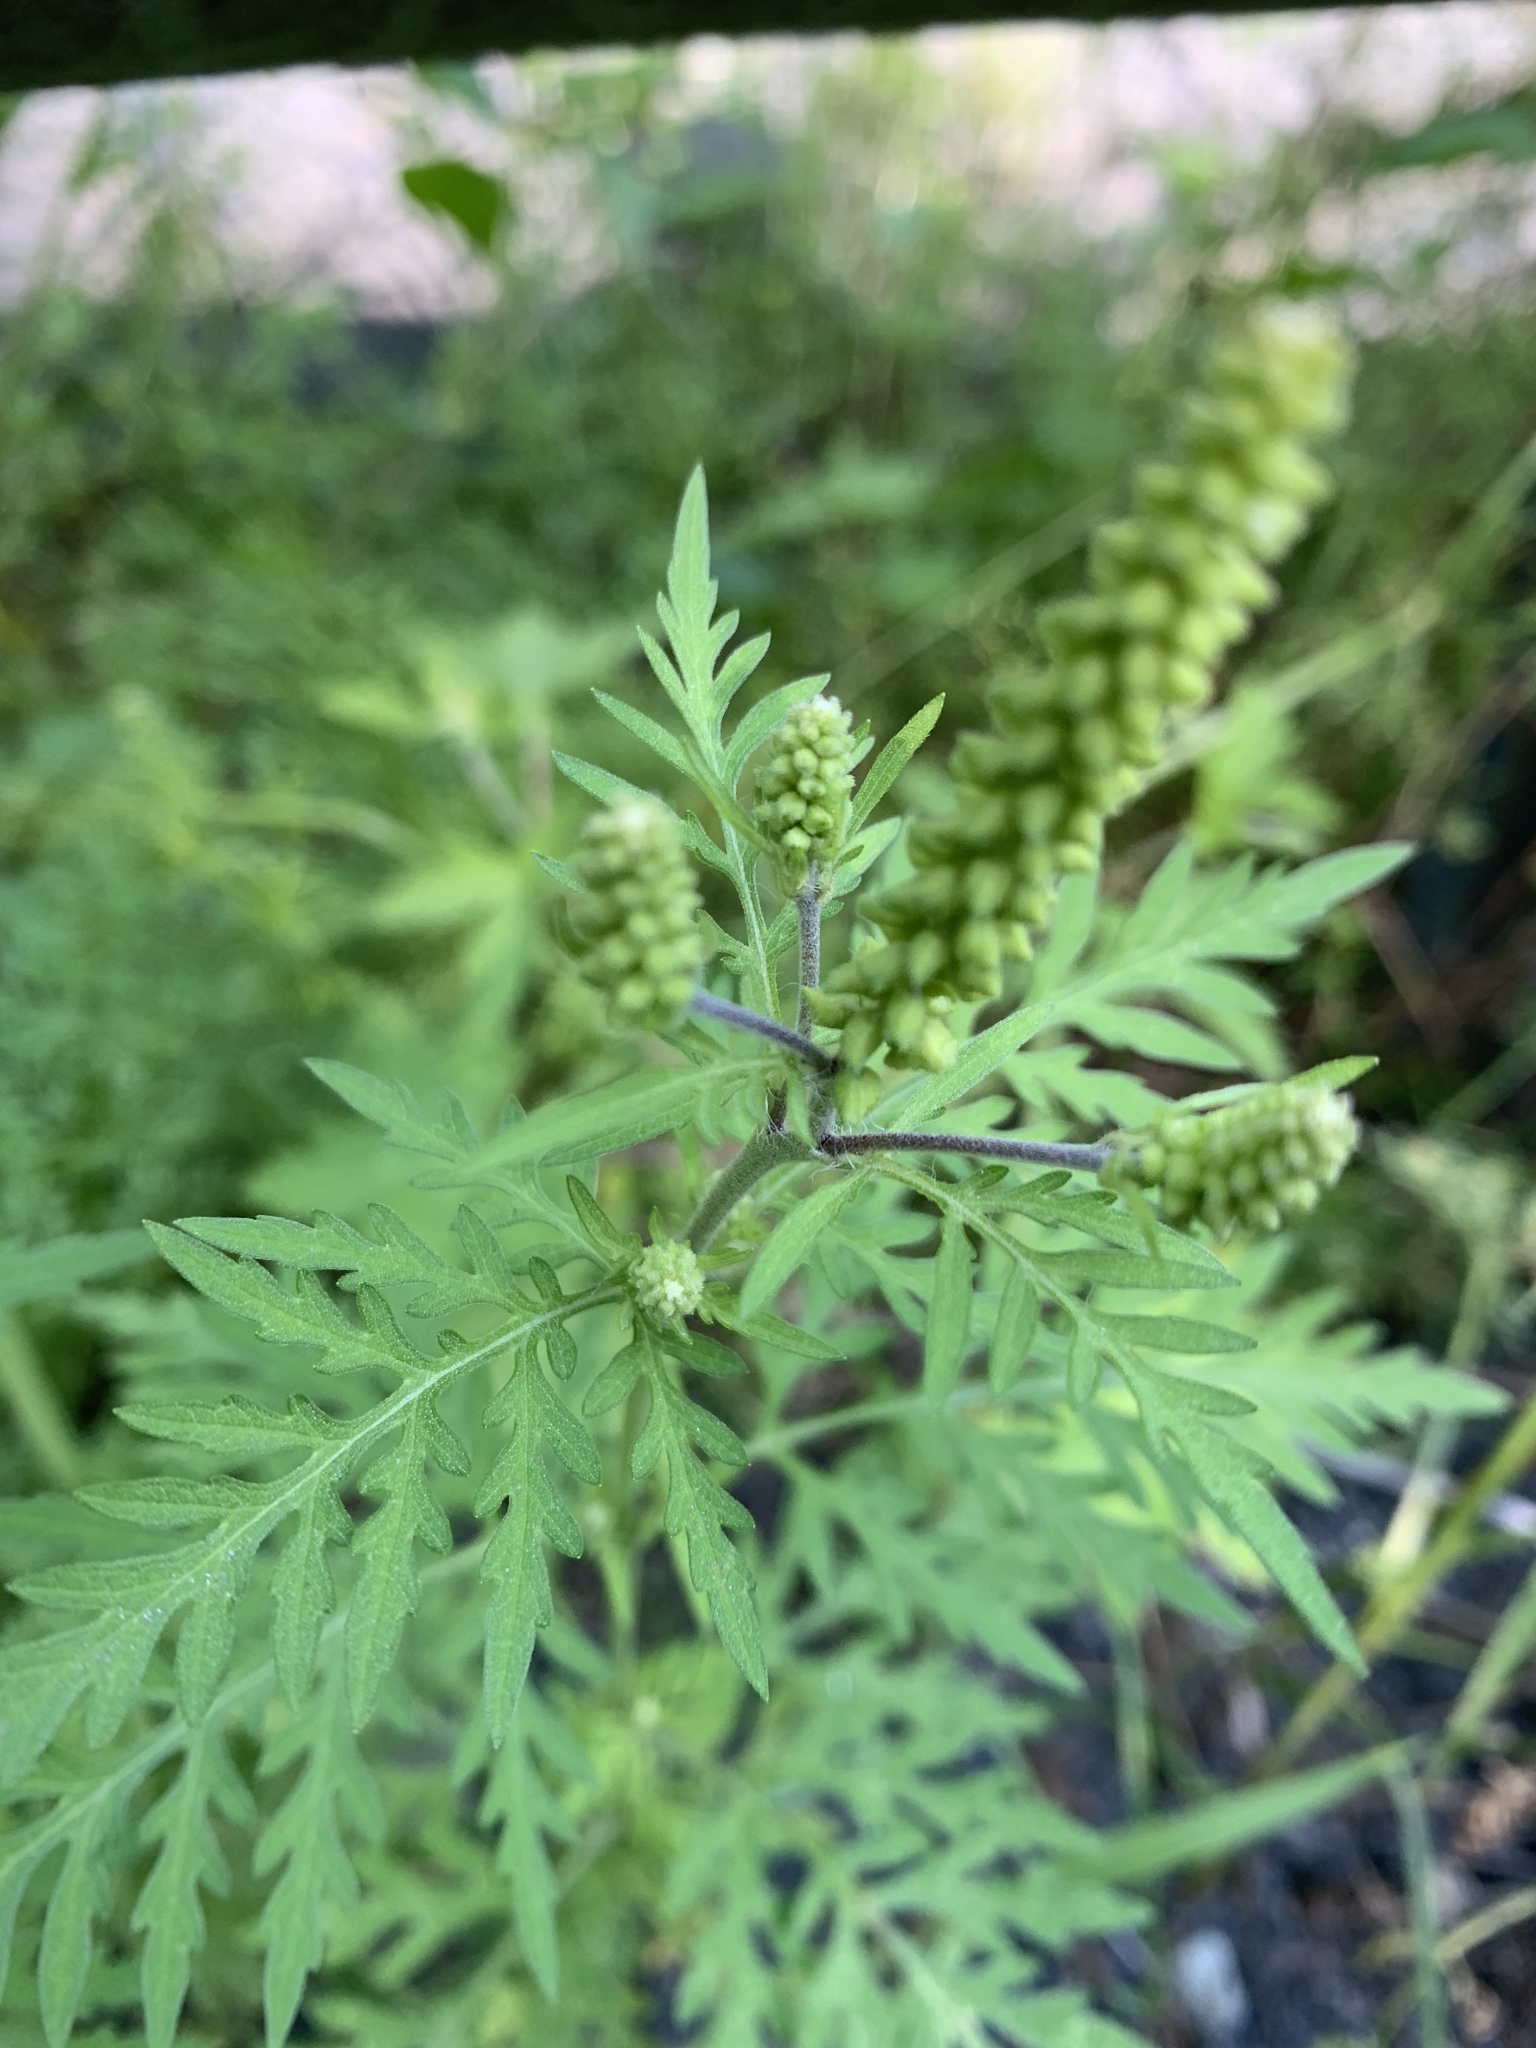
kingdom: Plantae
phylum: Tracheophyta
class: Magnoliopsida
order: Asterales
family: Asteraceae
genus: Ambrosia
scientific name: Ambrosia artemisiifolia
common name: Annual ragweed
